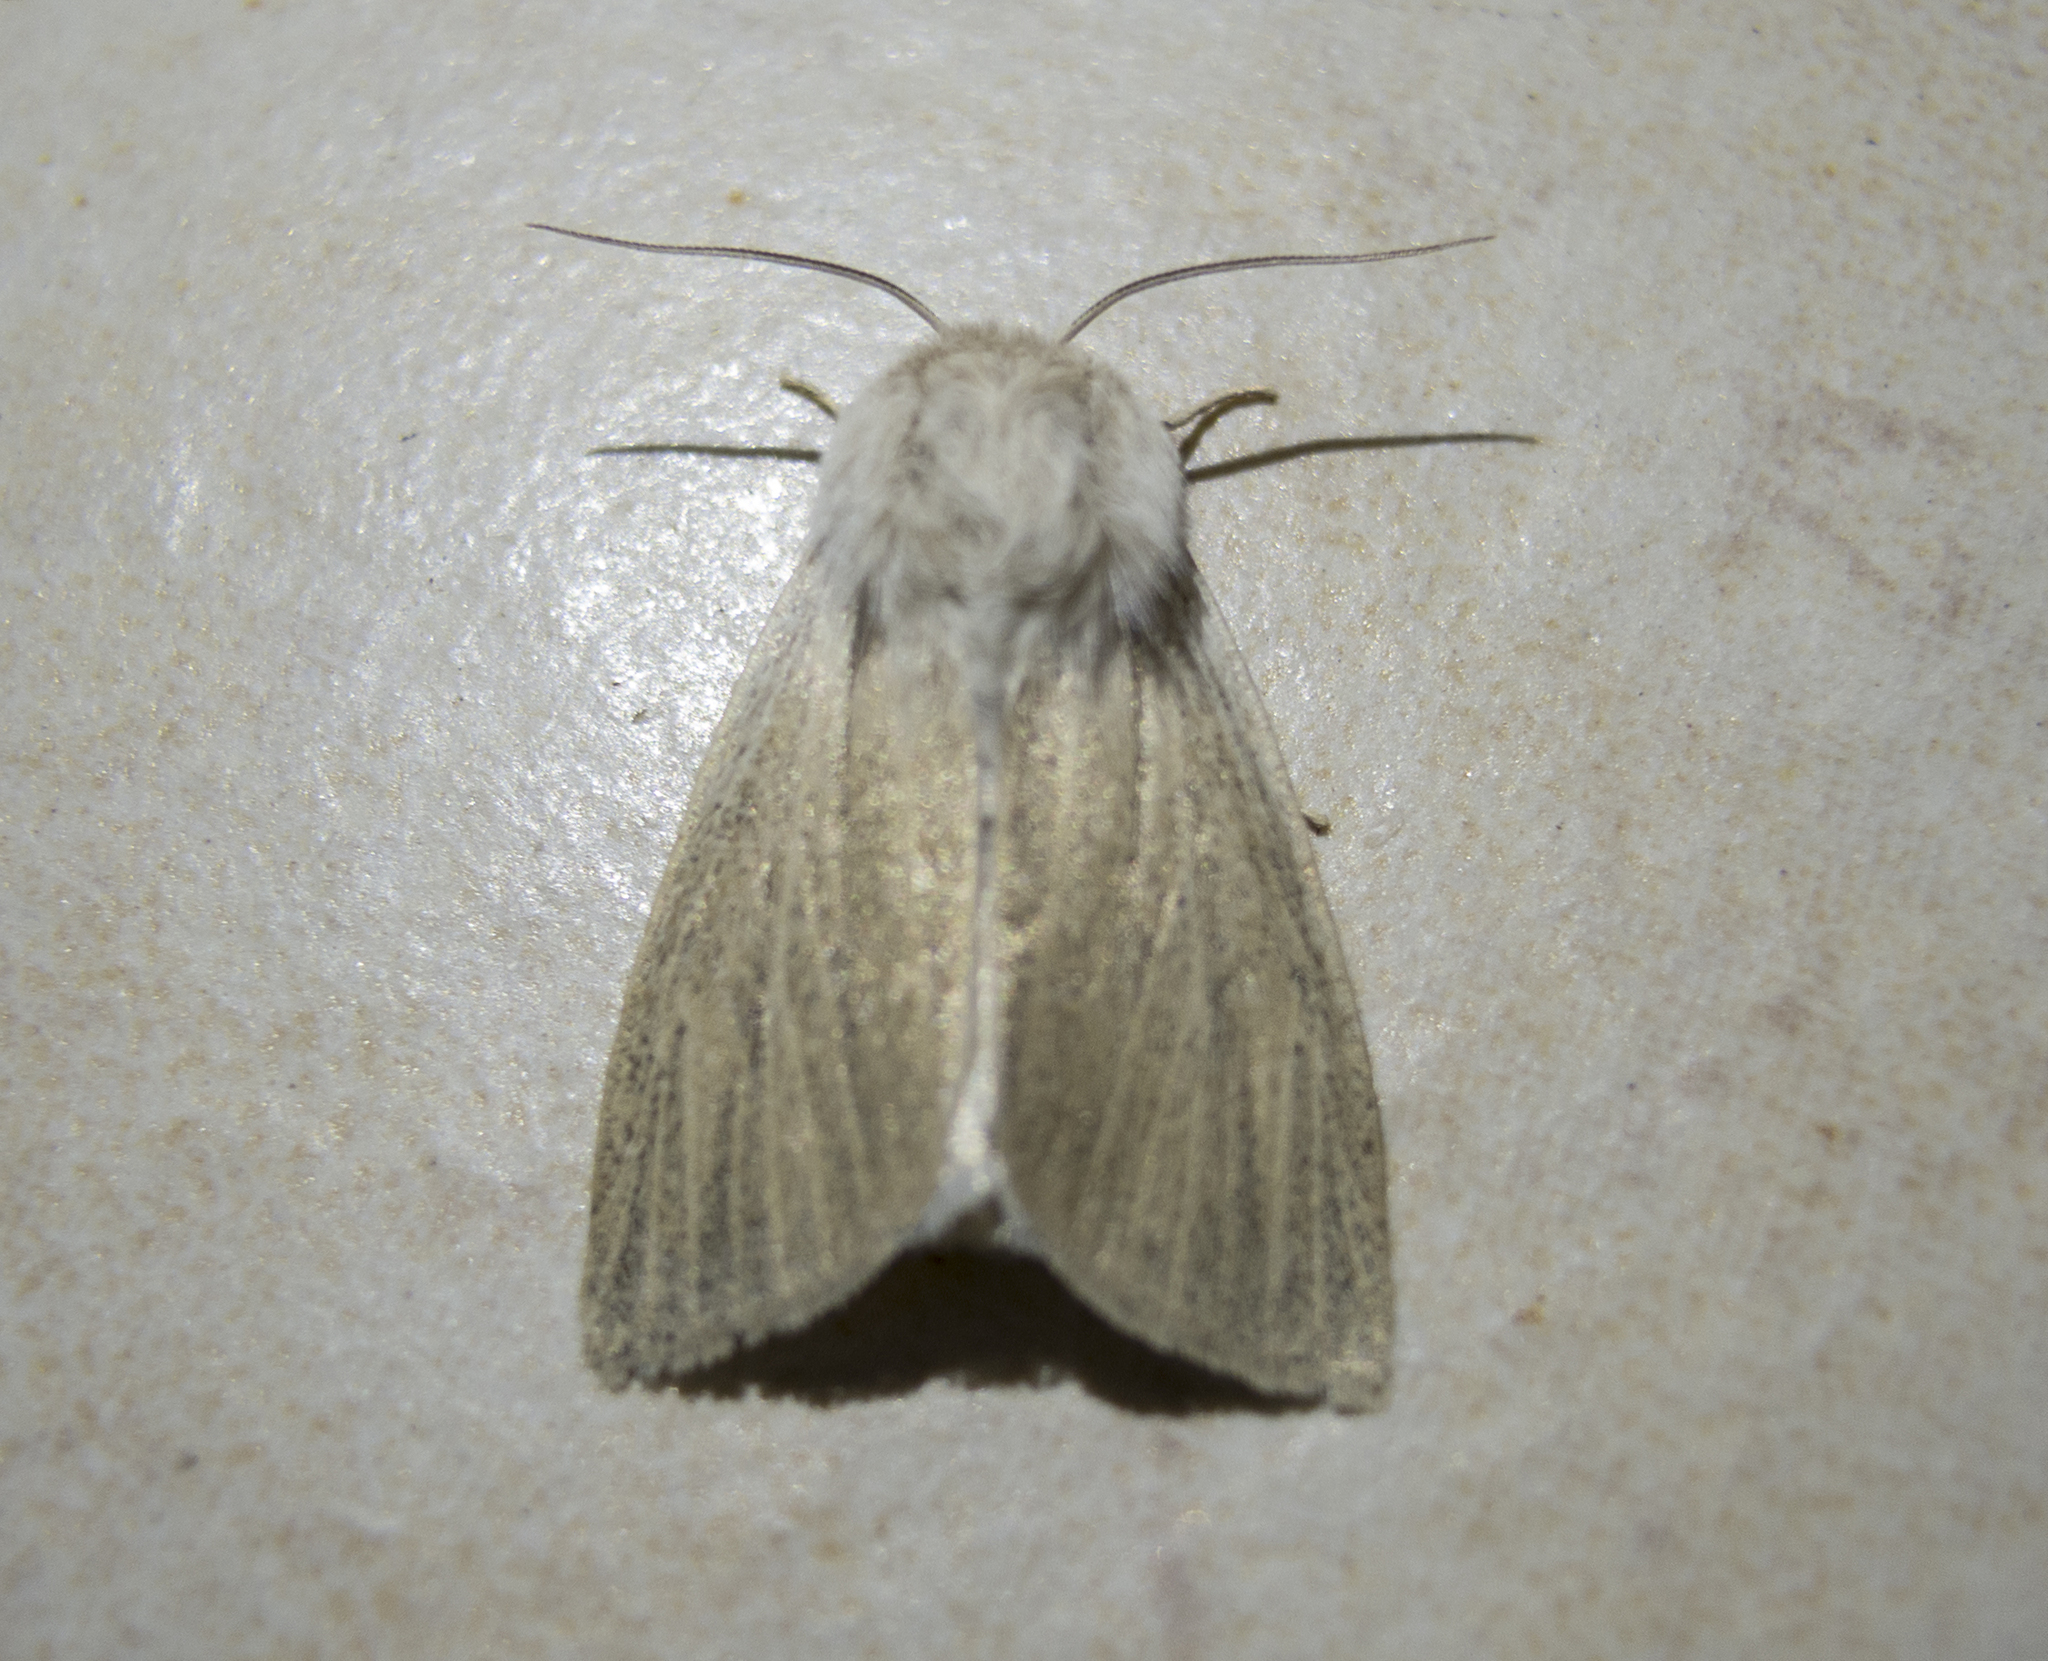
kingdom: Animalia
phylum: Arthropoda
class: Insecta
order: Lepidoptera
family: Noctuidae
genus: Simyra
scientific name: Simyra albovenosa
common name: Reed dagger
